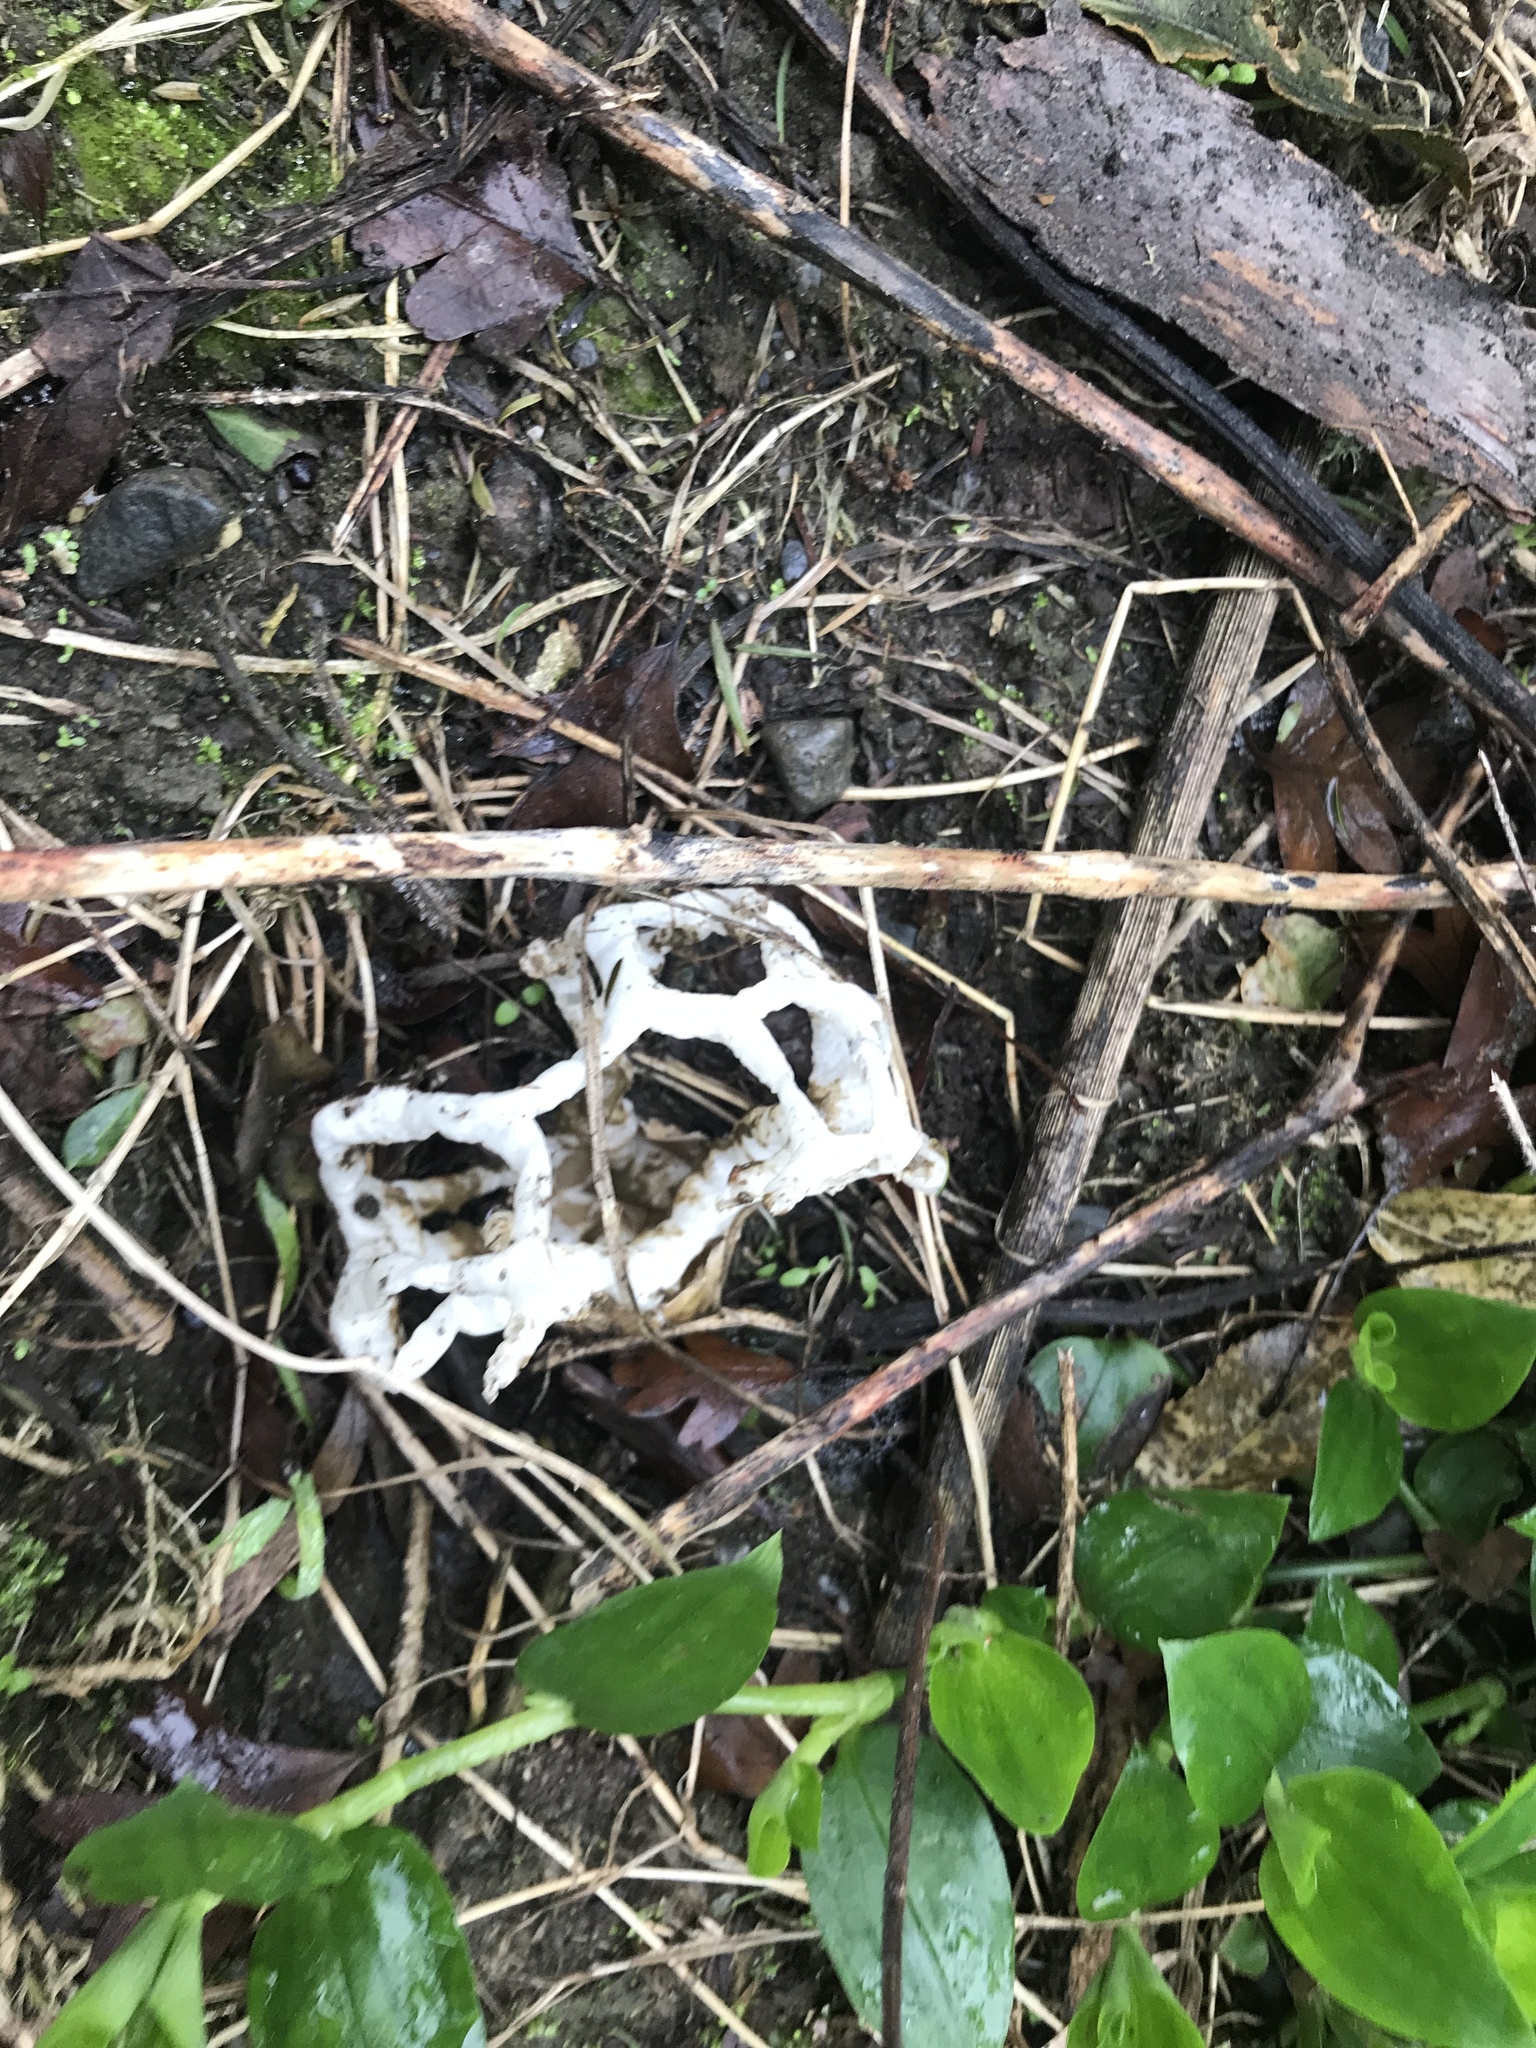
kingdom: Fungi
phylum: Basidiomycota
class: Agaricomycetes
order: Phallales
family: Phallaceae
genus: Ileodictyon
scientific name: Ileodictyon cibarium
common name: Basket fungus
